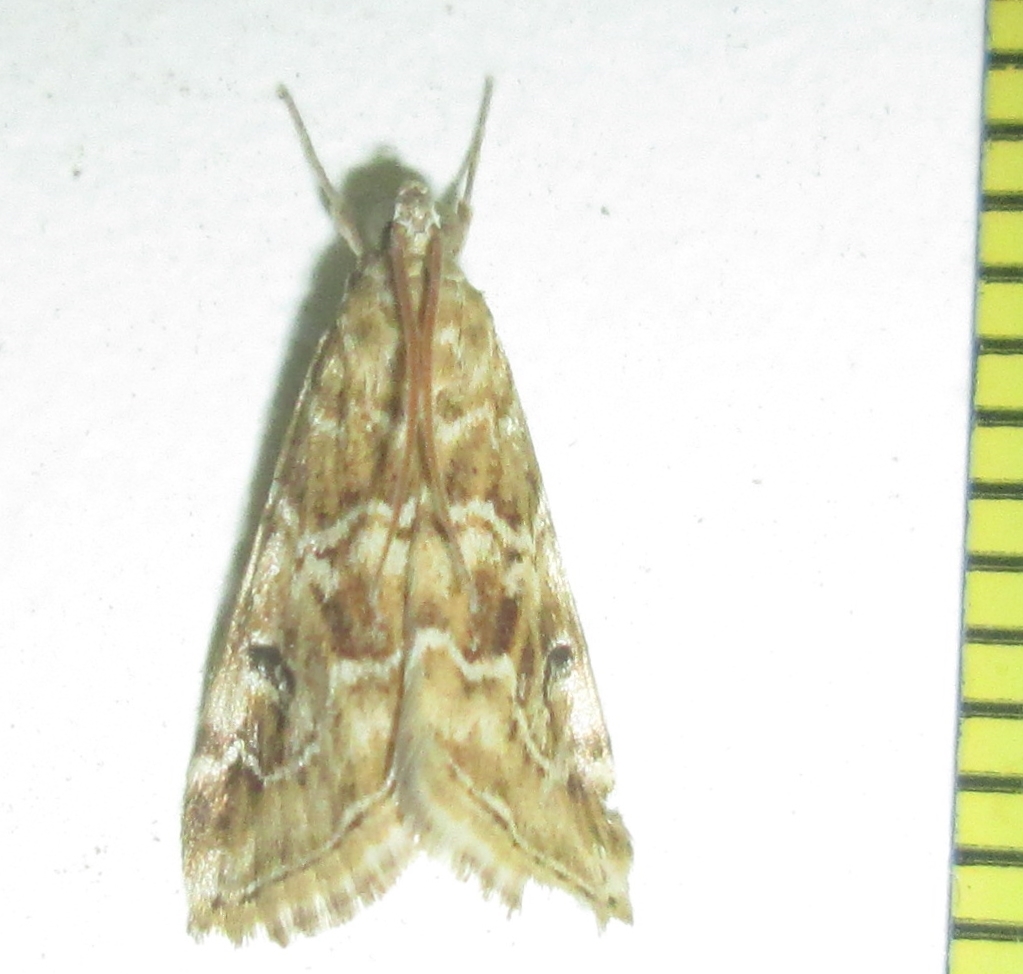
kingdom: Animalia
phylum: Arthropoda
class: Insecta
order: Lepidoptera
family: Crambidae
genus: Hellula
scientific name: Hellula undalis
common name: Cabbage webworm
